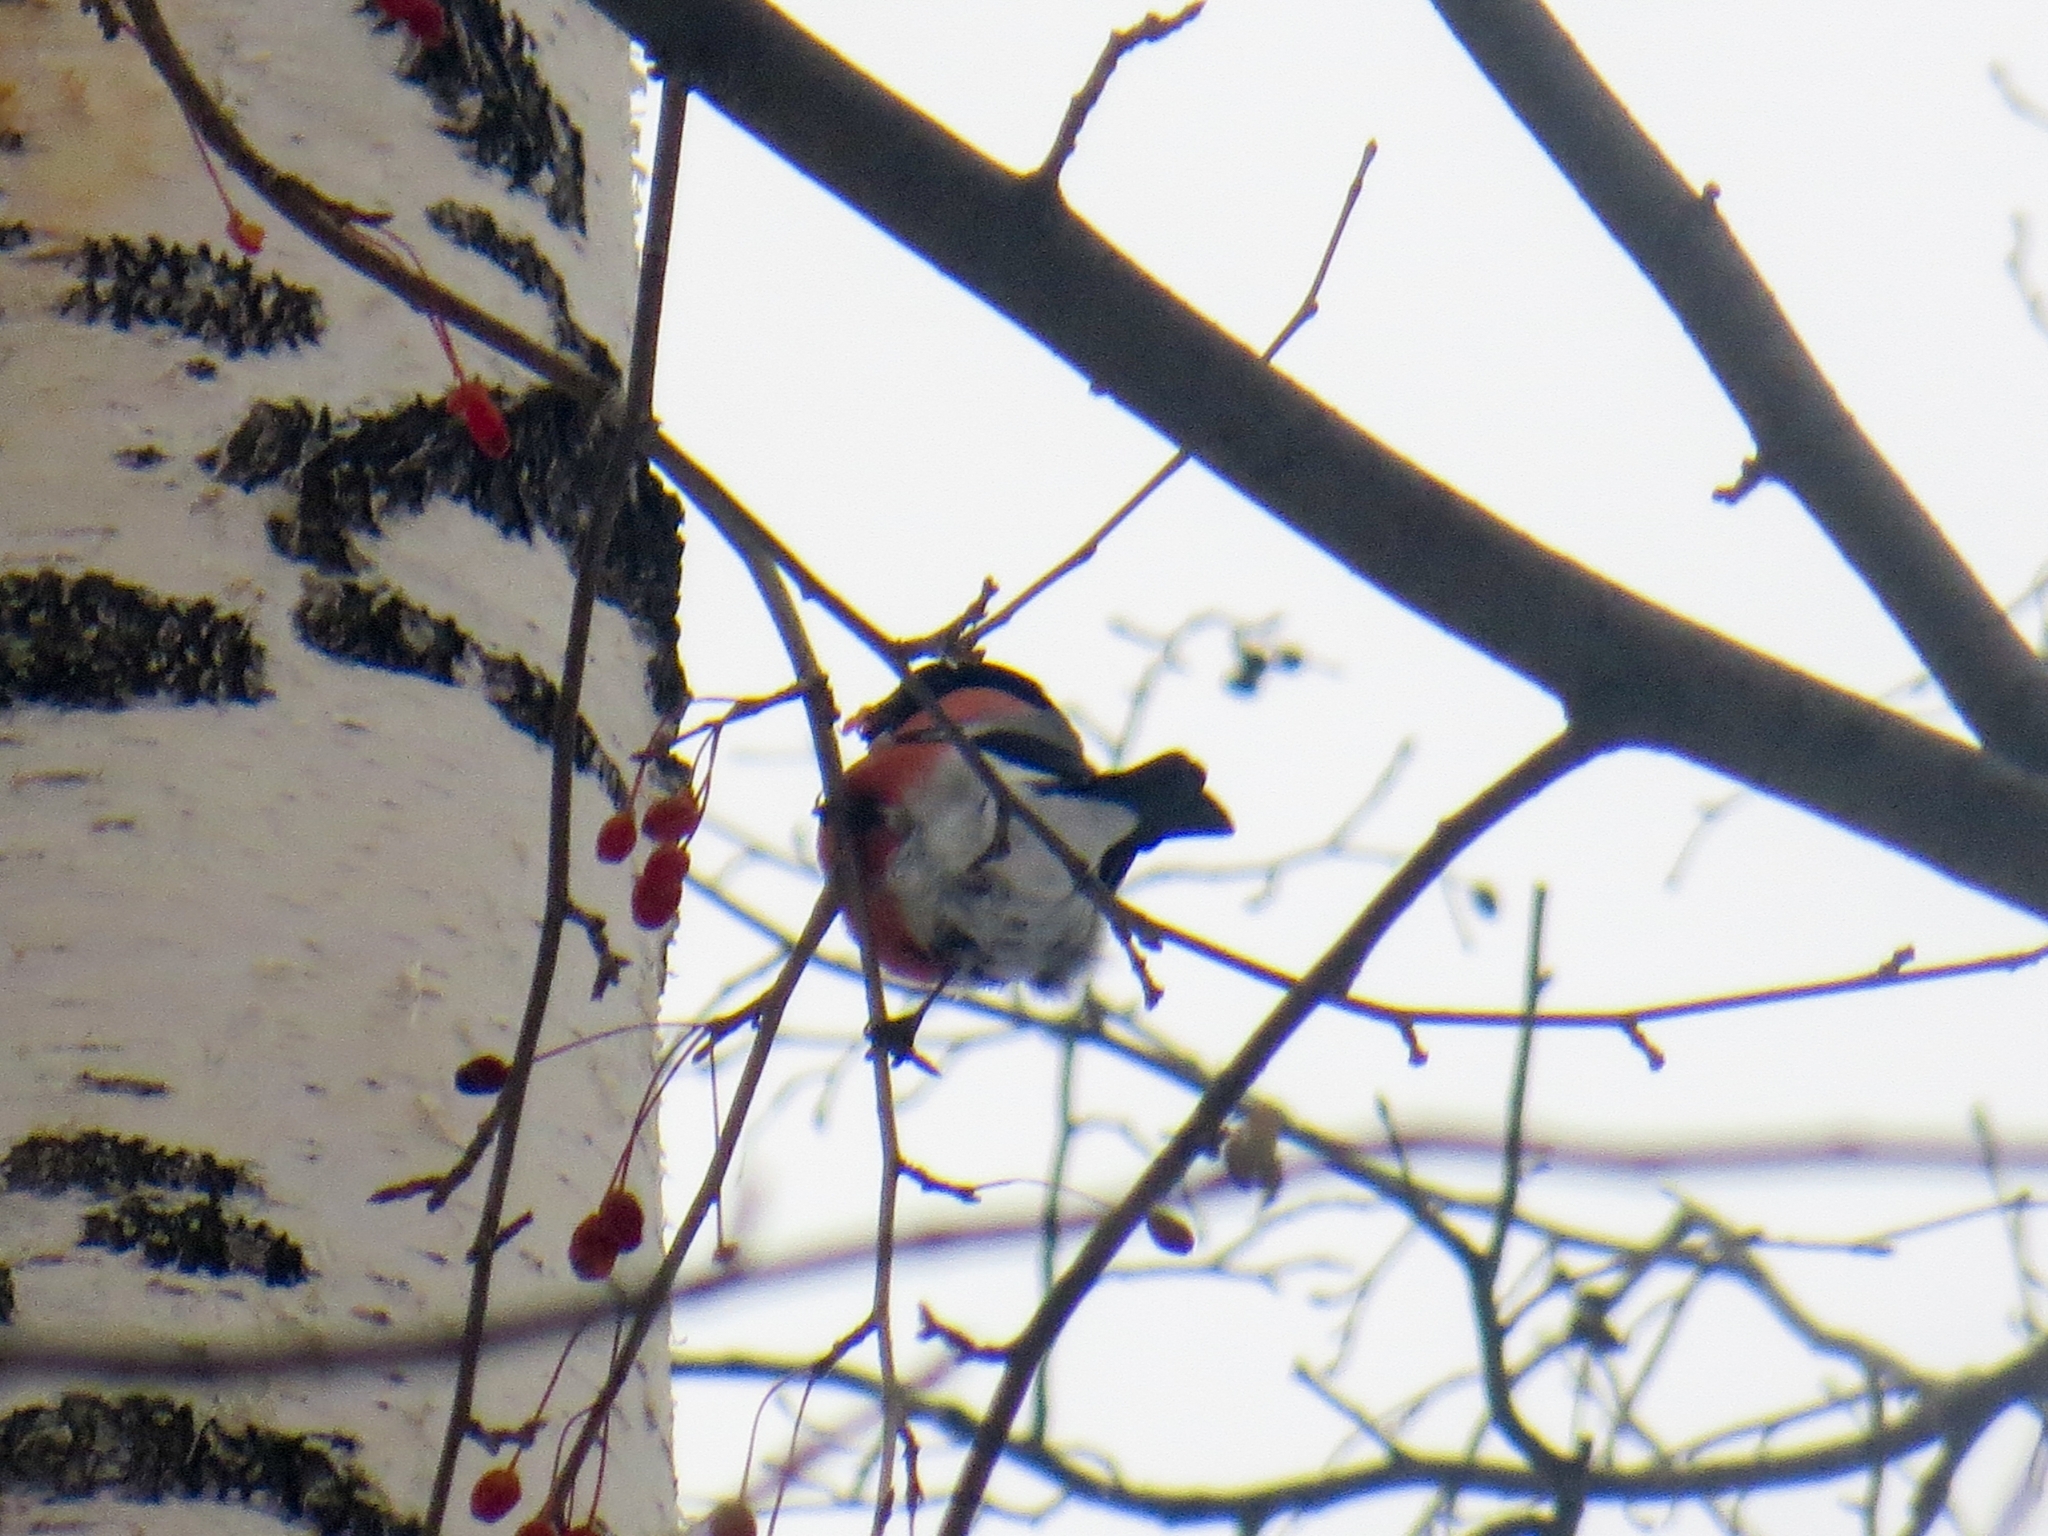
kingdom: Animalia
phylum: Chordata
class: Aves
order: Passeriformes
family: Fringillidae
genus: Pyrrhula
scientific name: Pyrrhula pyrrhula
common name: Eurasian bullfinch
